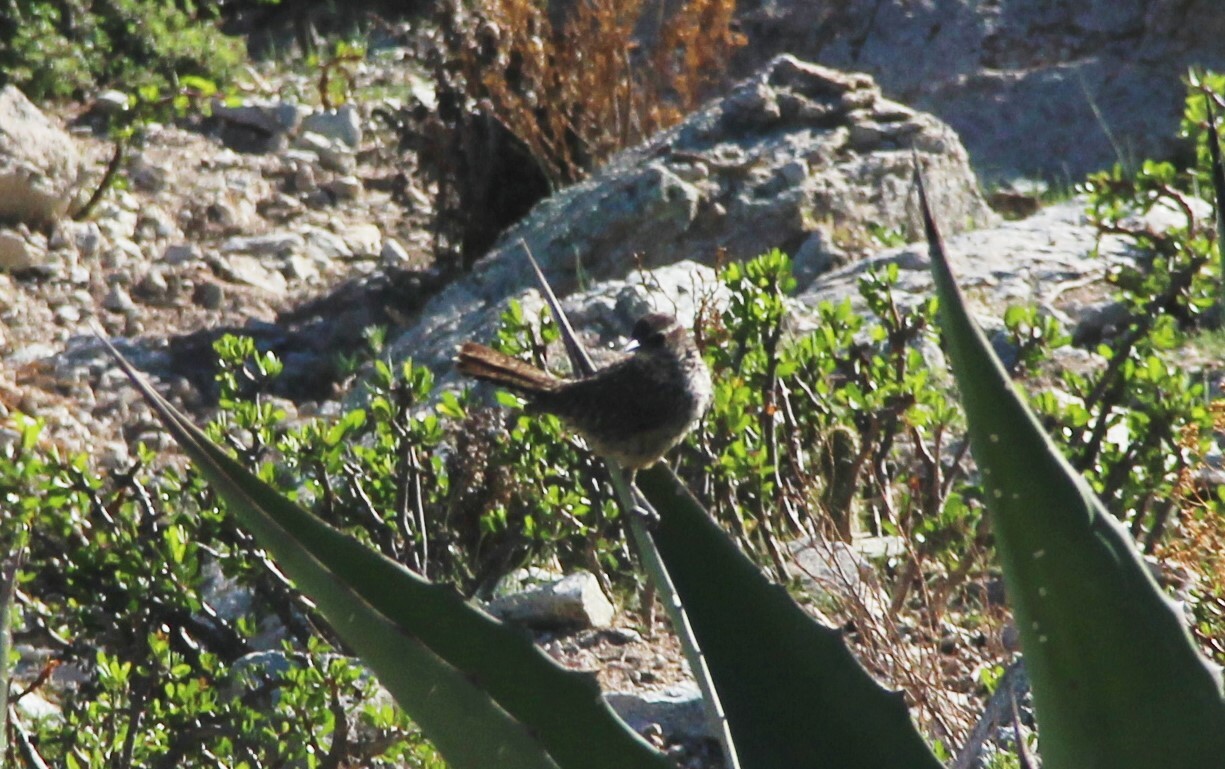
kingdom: Animalia
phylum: Chordata
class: Aves
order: Passeriformes
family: Passerellidae
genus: Aimophila
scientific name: Aimophila ruficeps
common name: Rufous-crowned sparrow
